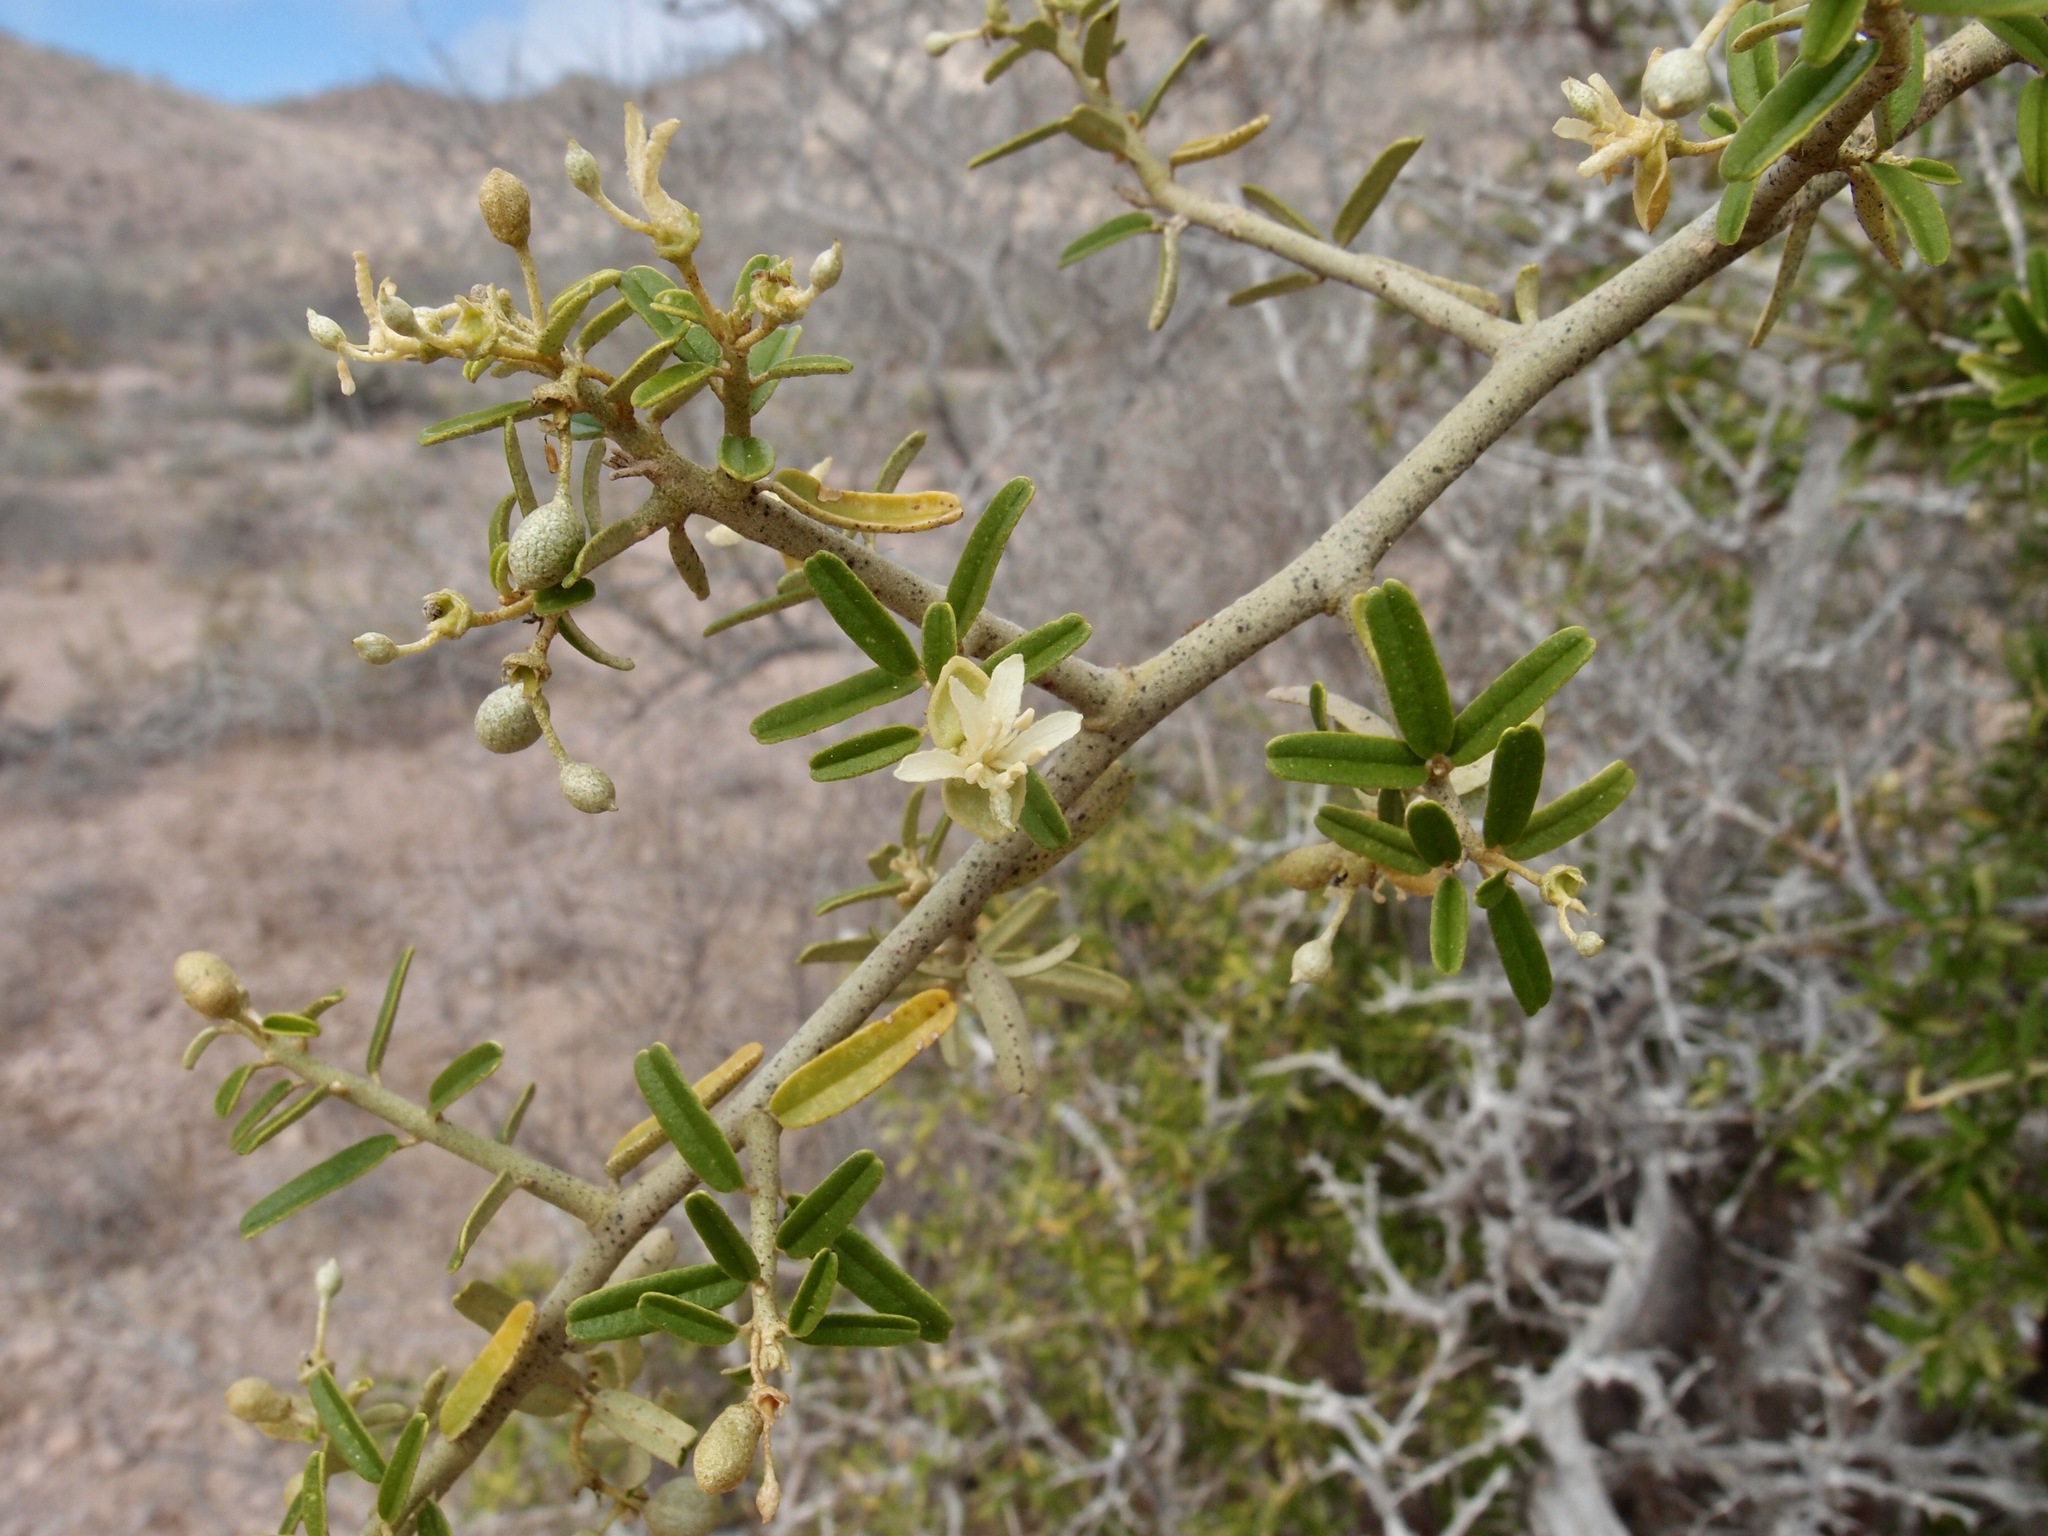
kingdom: Plantae
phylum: Tracheophyta
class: Magnoliopsida
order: Brassicales
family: Capparaceae
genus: Atamisquea
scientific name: Atamisquea emarginata
